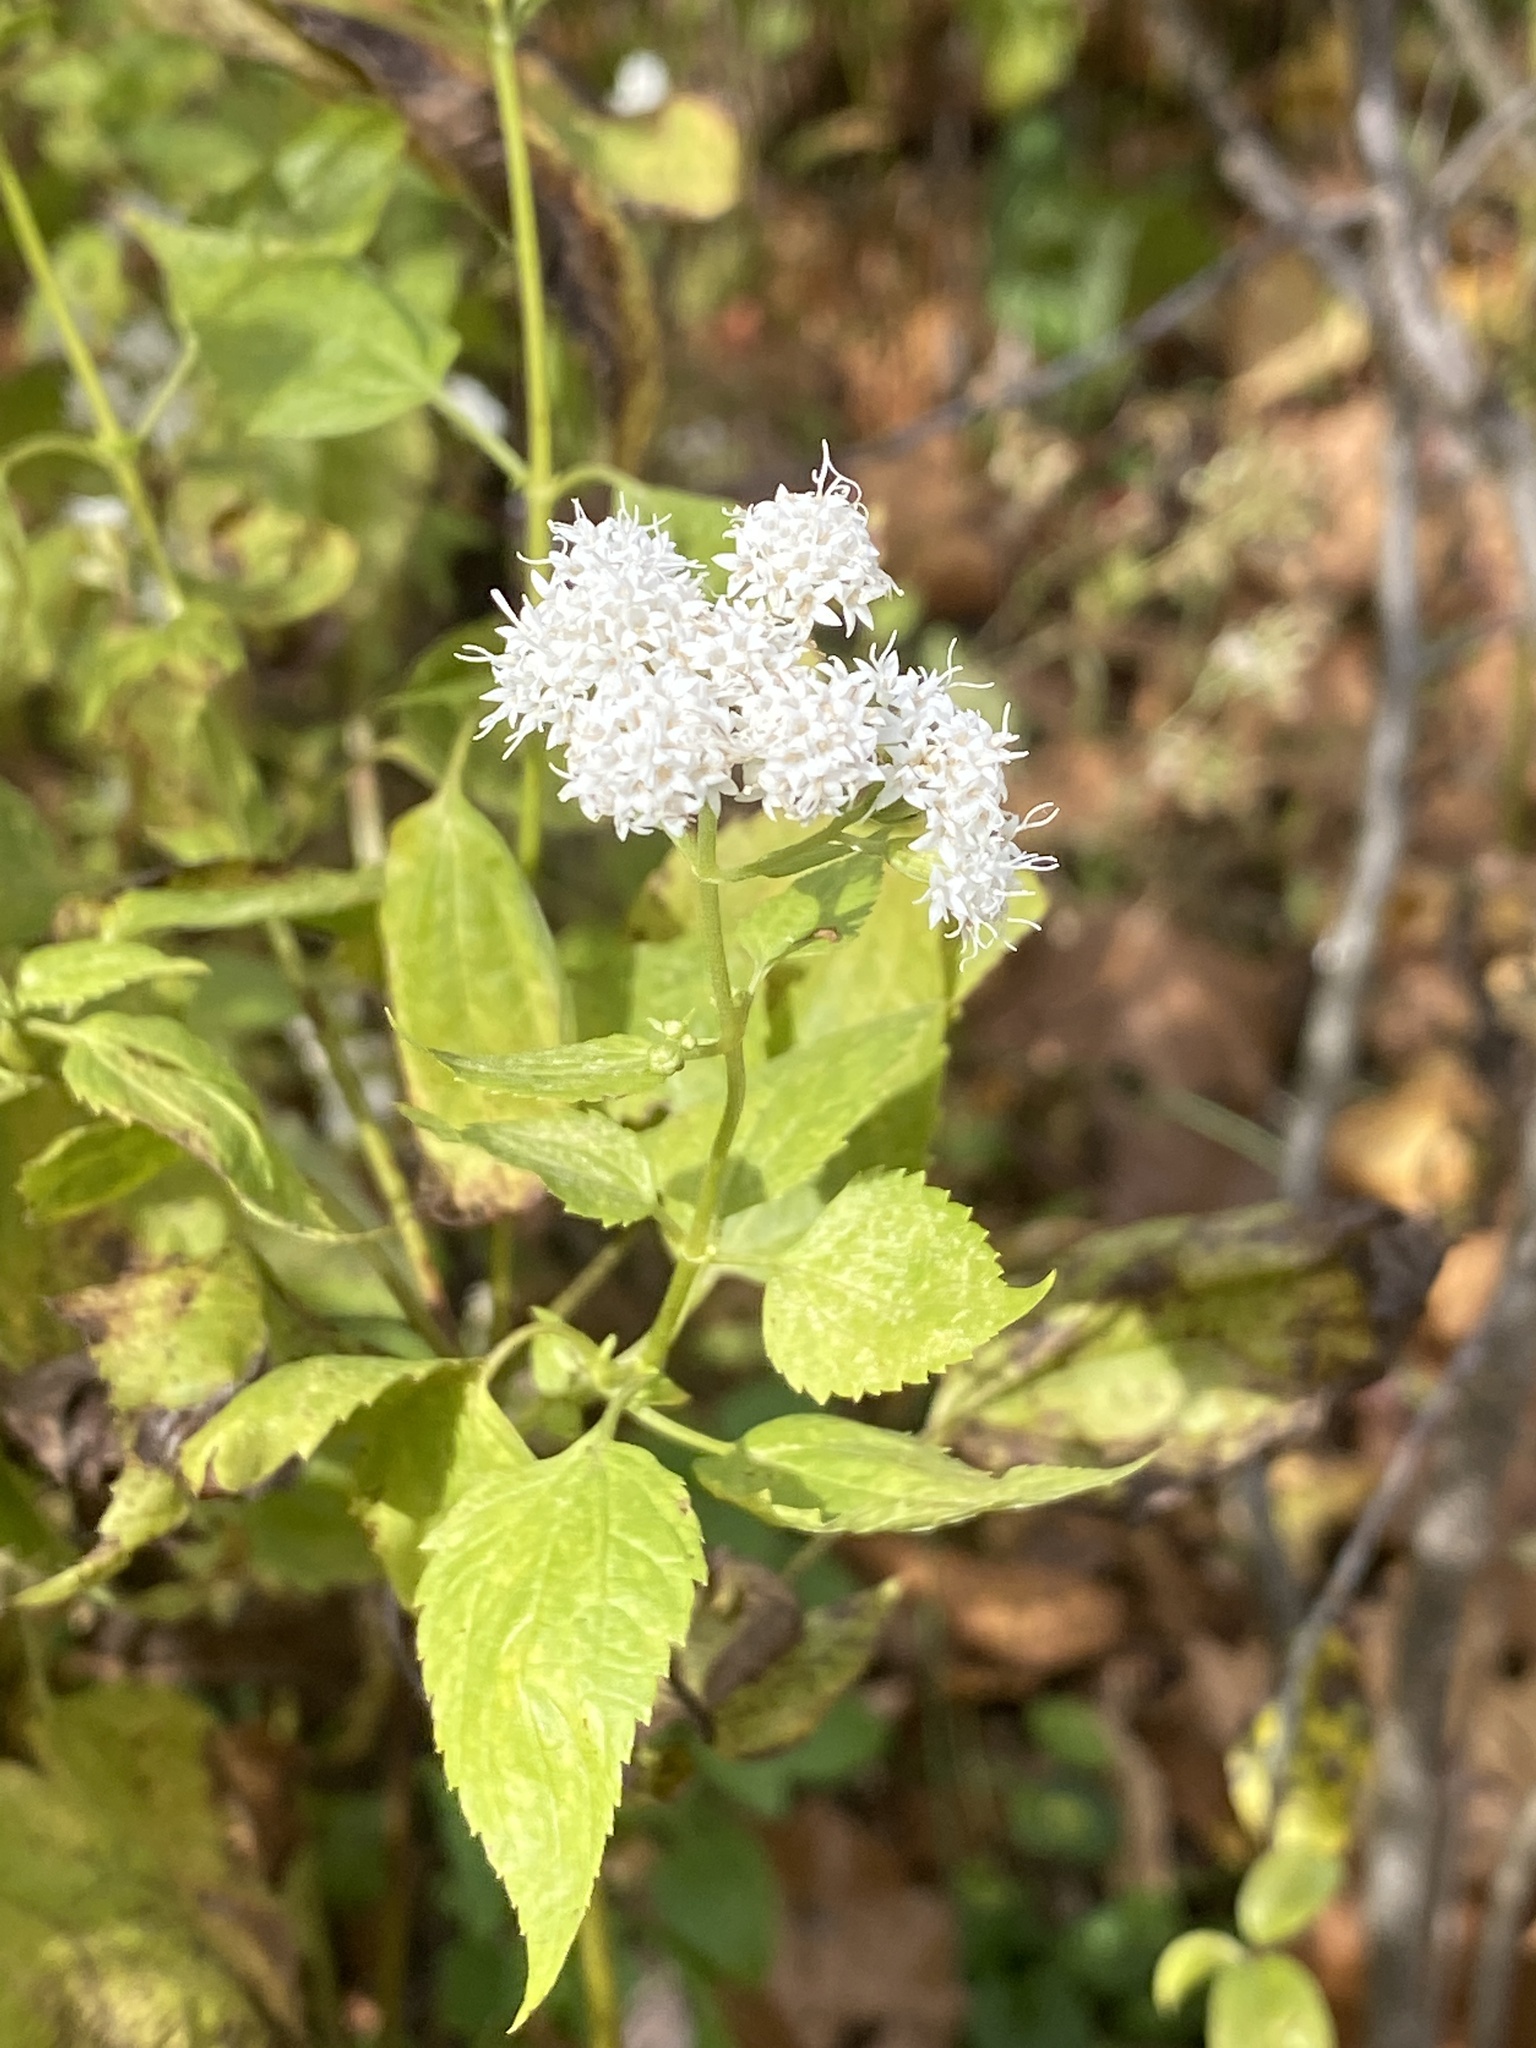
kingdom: Plantae
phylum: Tracheophyta
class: Magnoliopsida
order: Asterales
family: Asteraceae
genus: Ageratina
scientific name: Ageratina altissima
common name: White snakeroot
